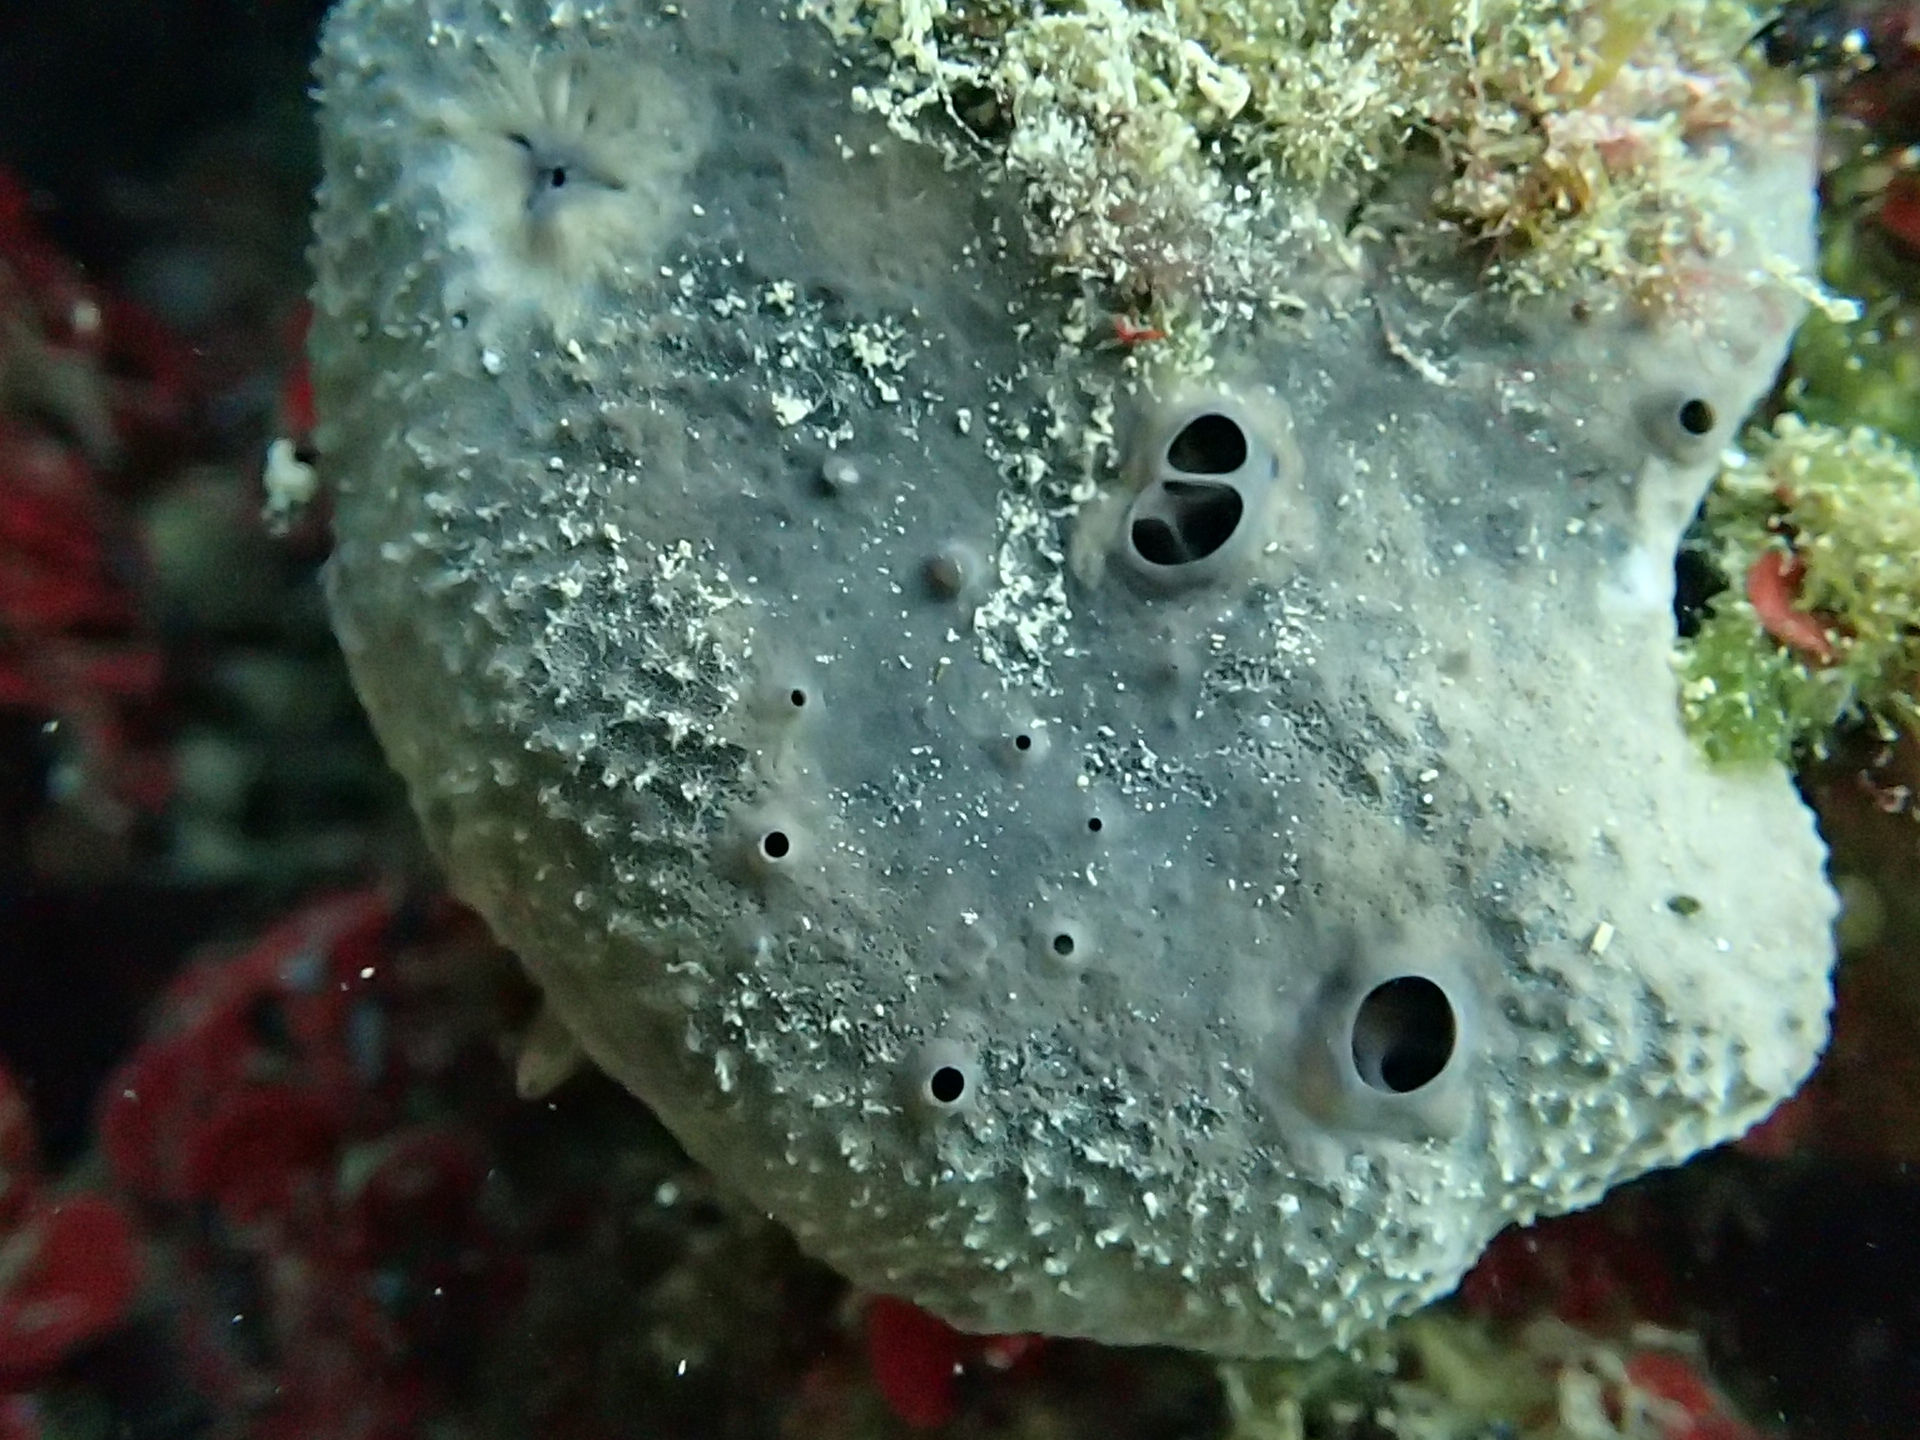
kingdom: Animalia
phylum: Porifera
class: Demospongiae
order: Dictyoceratida
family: Irciniidae
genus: Ircinia
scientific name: Ircinia oros
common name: Grey leather sponge
